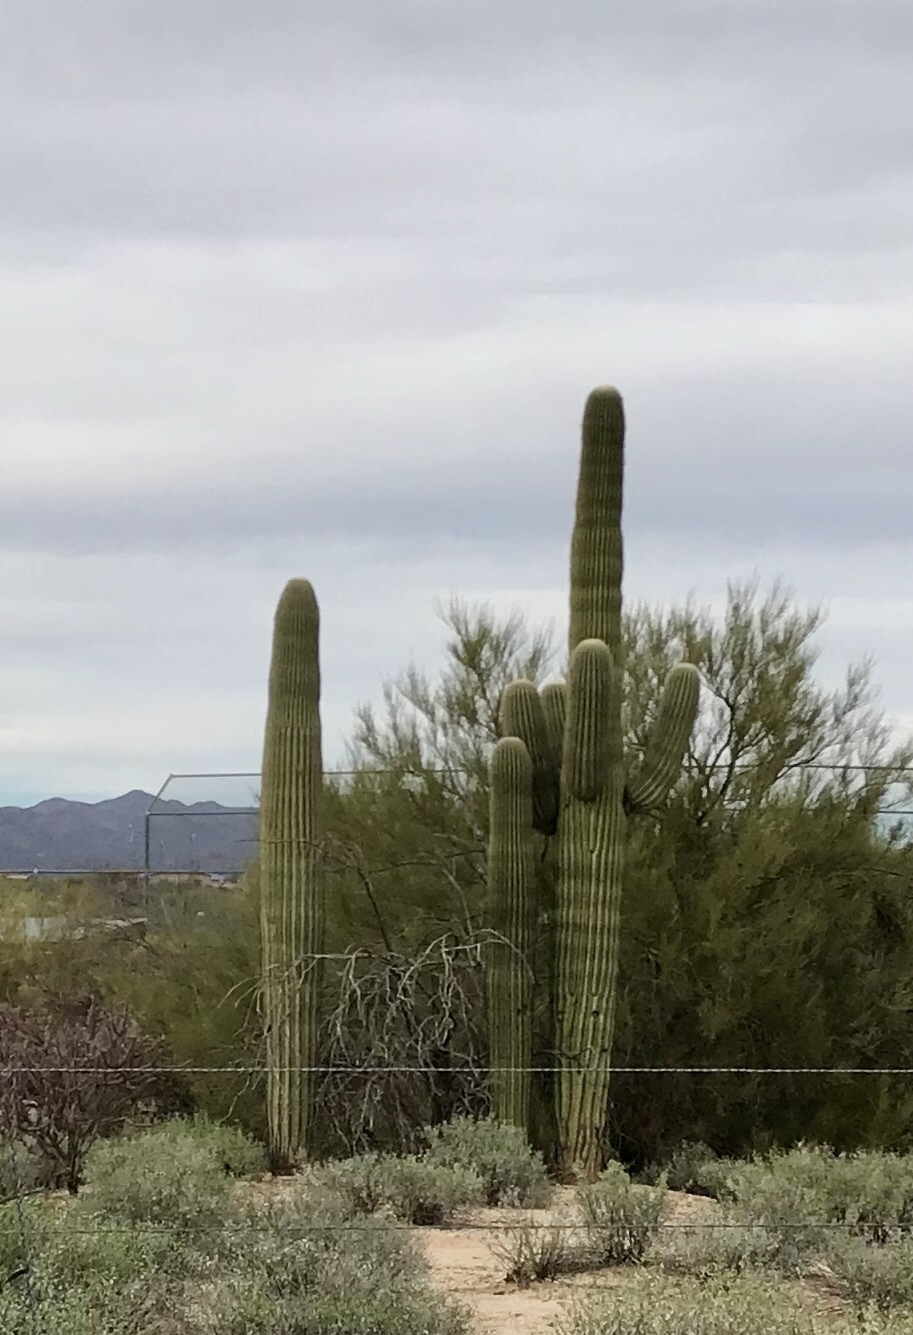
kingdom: Plantae
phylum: Tracheophyta
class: Magnoliopsida
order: Caryophyllales
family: Cactaceae
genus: Carnegiea
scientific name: Carnegiea gigantea
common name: Saguaro
